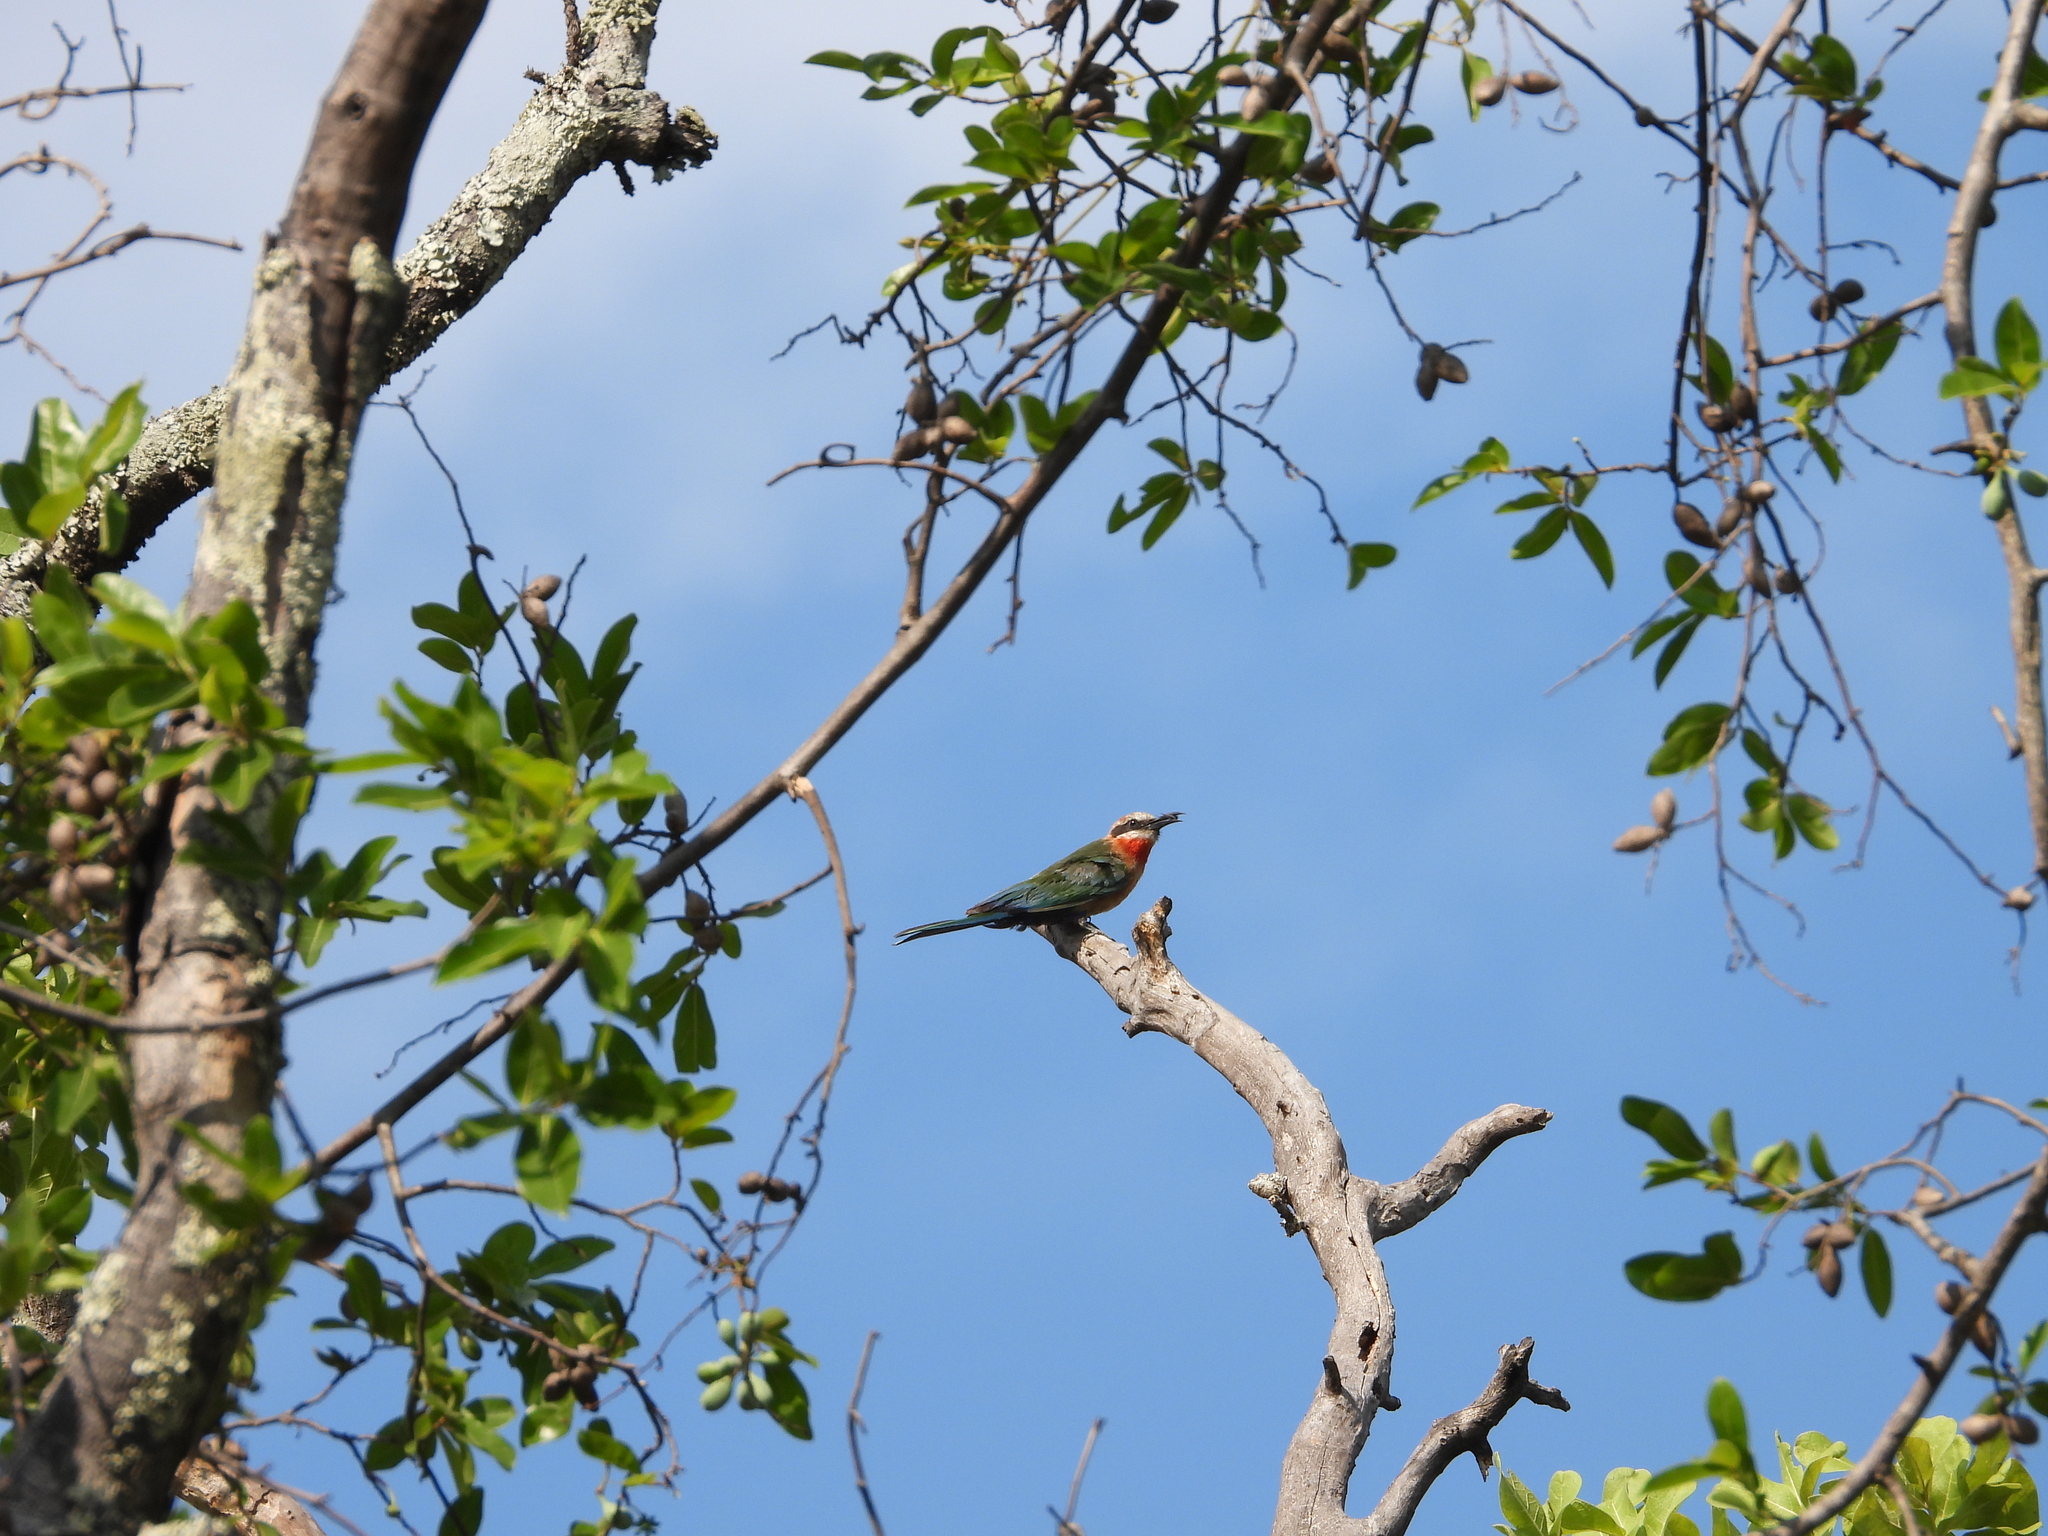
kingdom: Animalia
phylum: Chordata
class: Aves
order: Coraciiformes
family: Meropidae
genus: Merops
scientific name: Merops bullockoides
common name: White-fronted bee-eater
